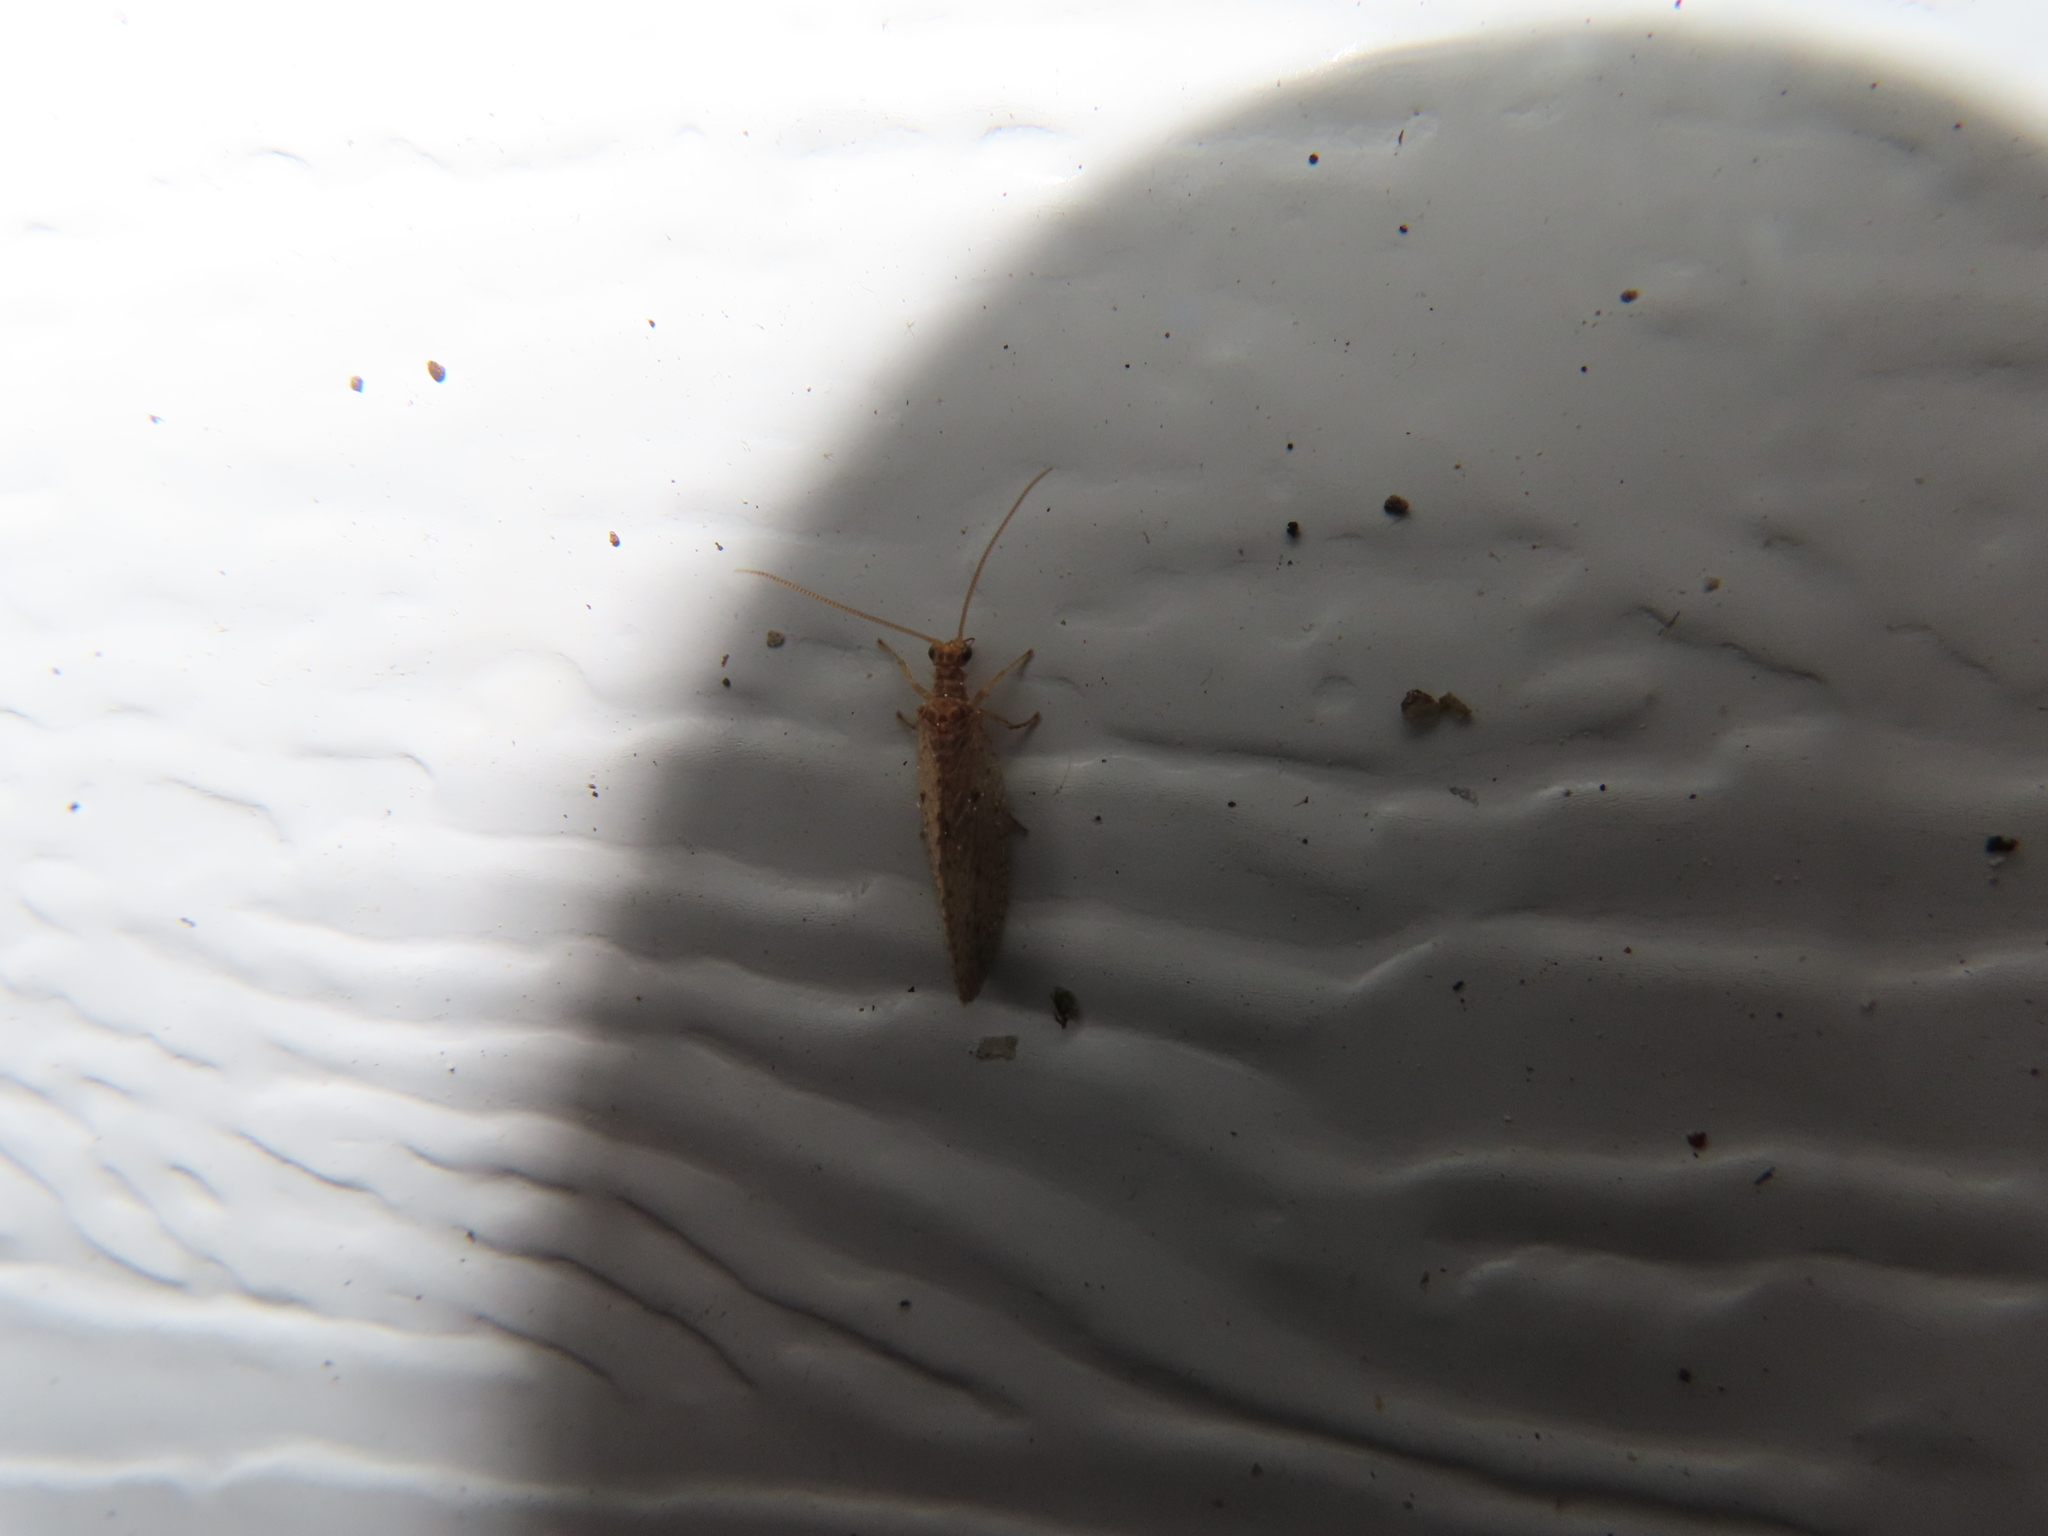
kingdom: Animalia
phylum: Arthropoda
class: Insecta
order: Neuroptera
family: Hemerobiidae
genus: Micromus
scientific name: Micromus subanticus
